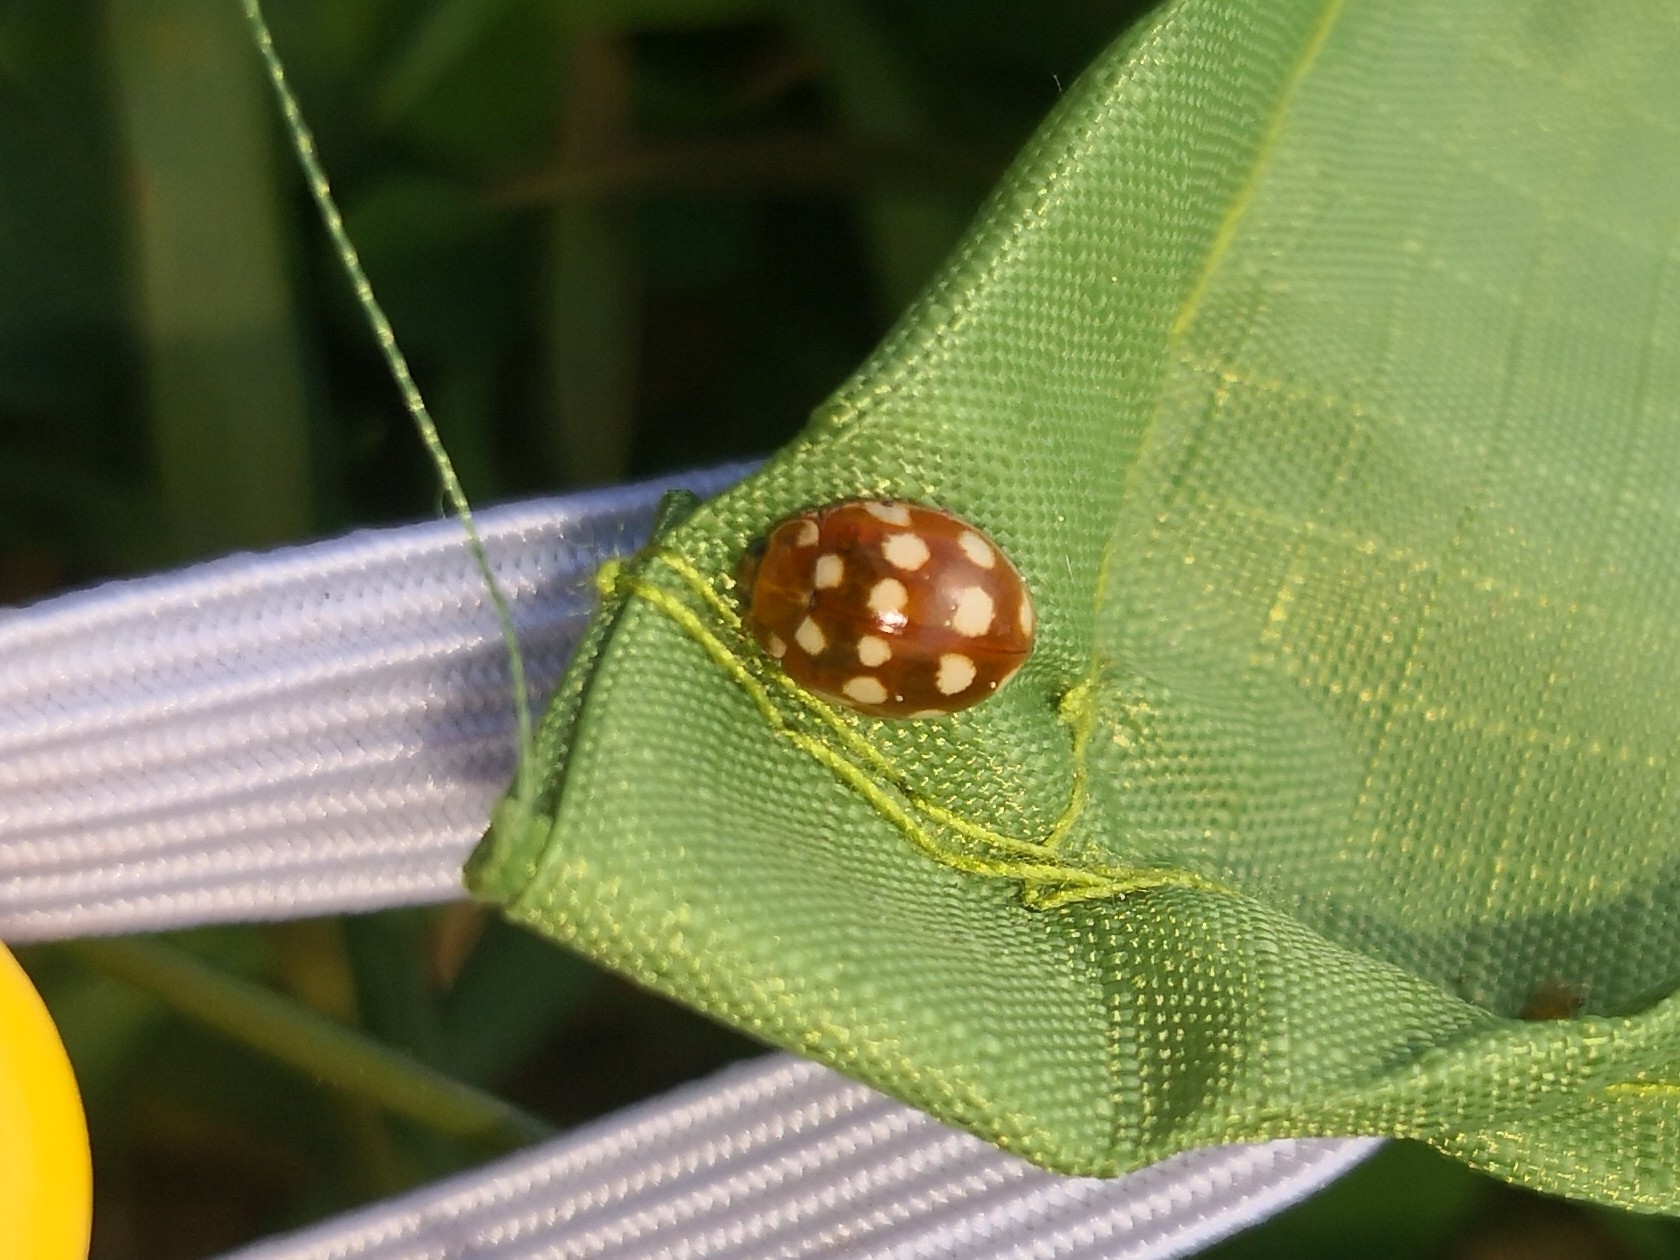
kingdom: Animalia
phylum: Arthropoda
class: Insecta
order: Coleoptera
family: Coccinellidae
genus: Calvia
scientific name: Calvia quatuordecimguttata
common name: Cream-spot ladybird
